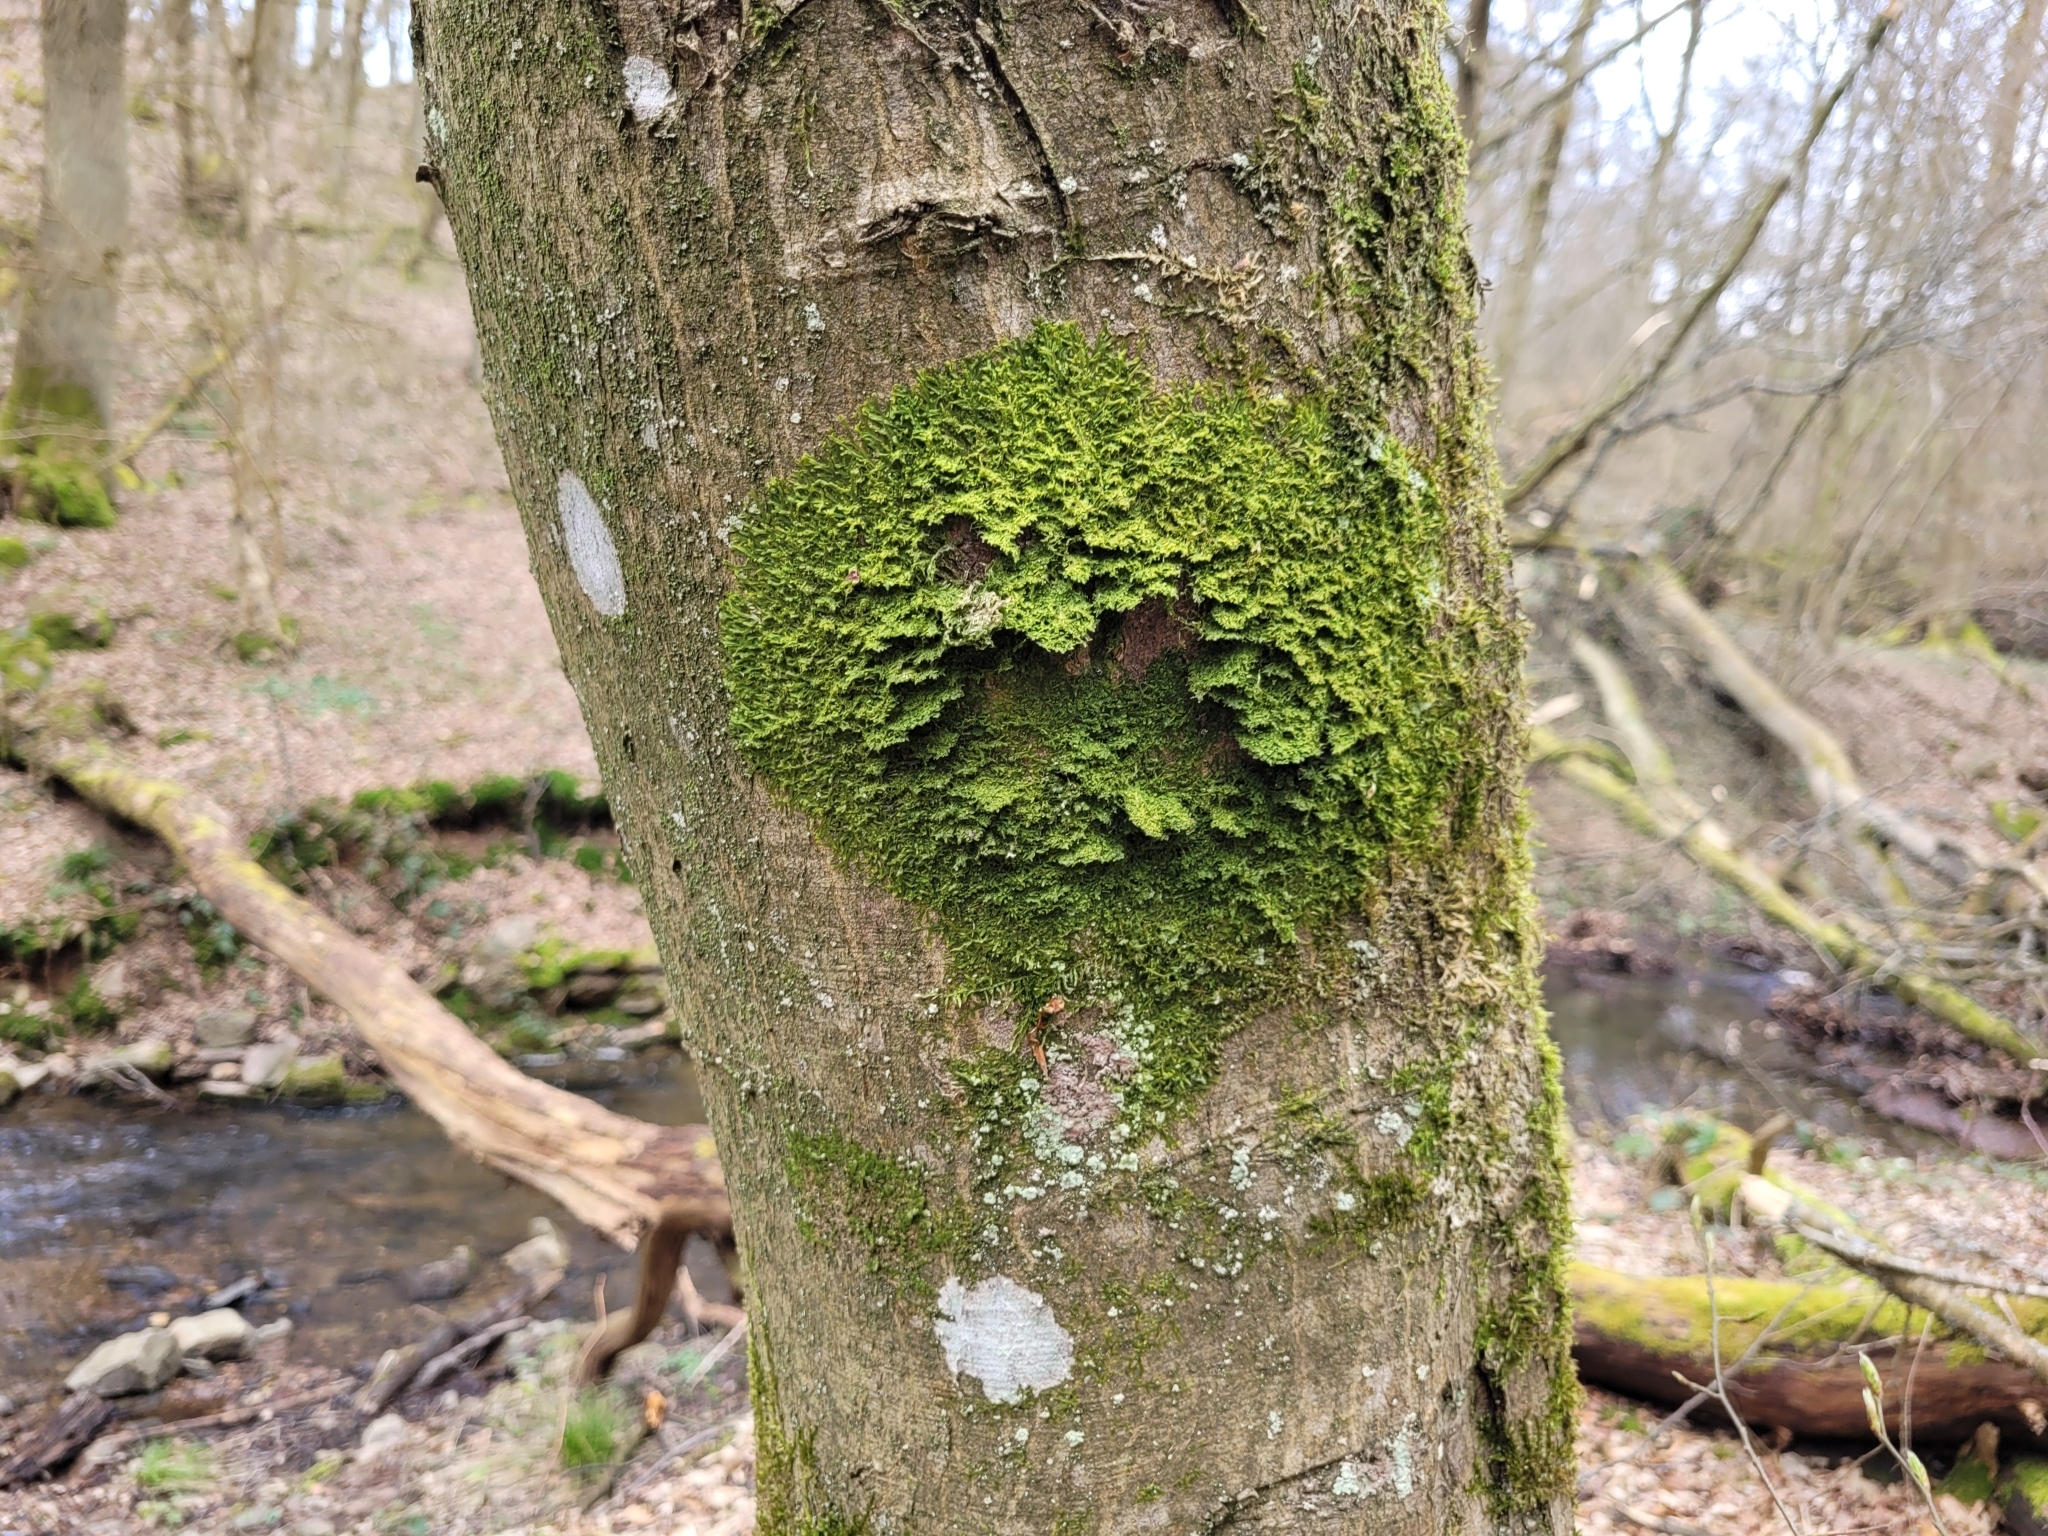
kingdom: Plantae
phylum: Marchantiophyta
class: Jungermanniopsida
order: Metzgeriales
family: Metzgeriaceae
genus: Metzgeria
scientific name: Metzgeria furcata
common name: Forked veilwort
